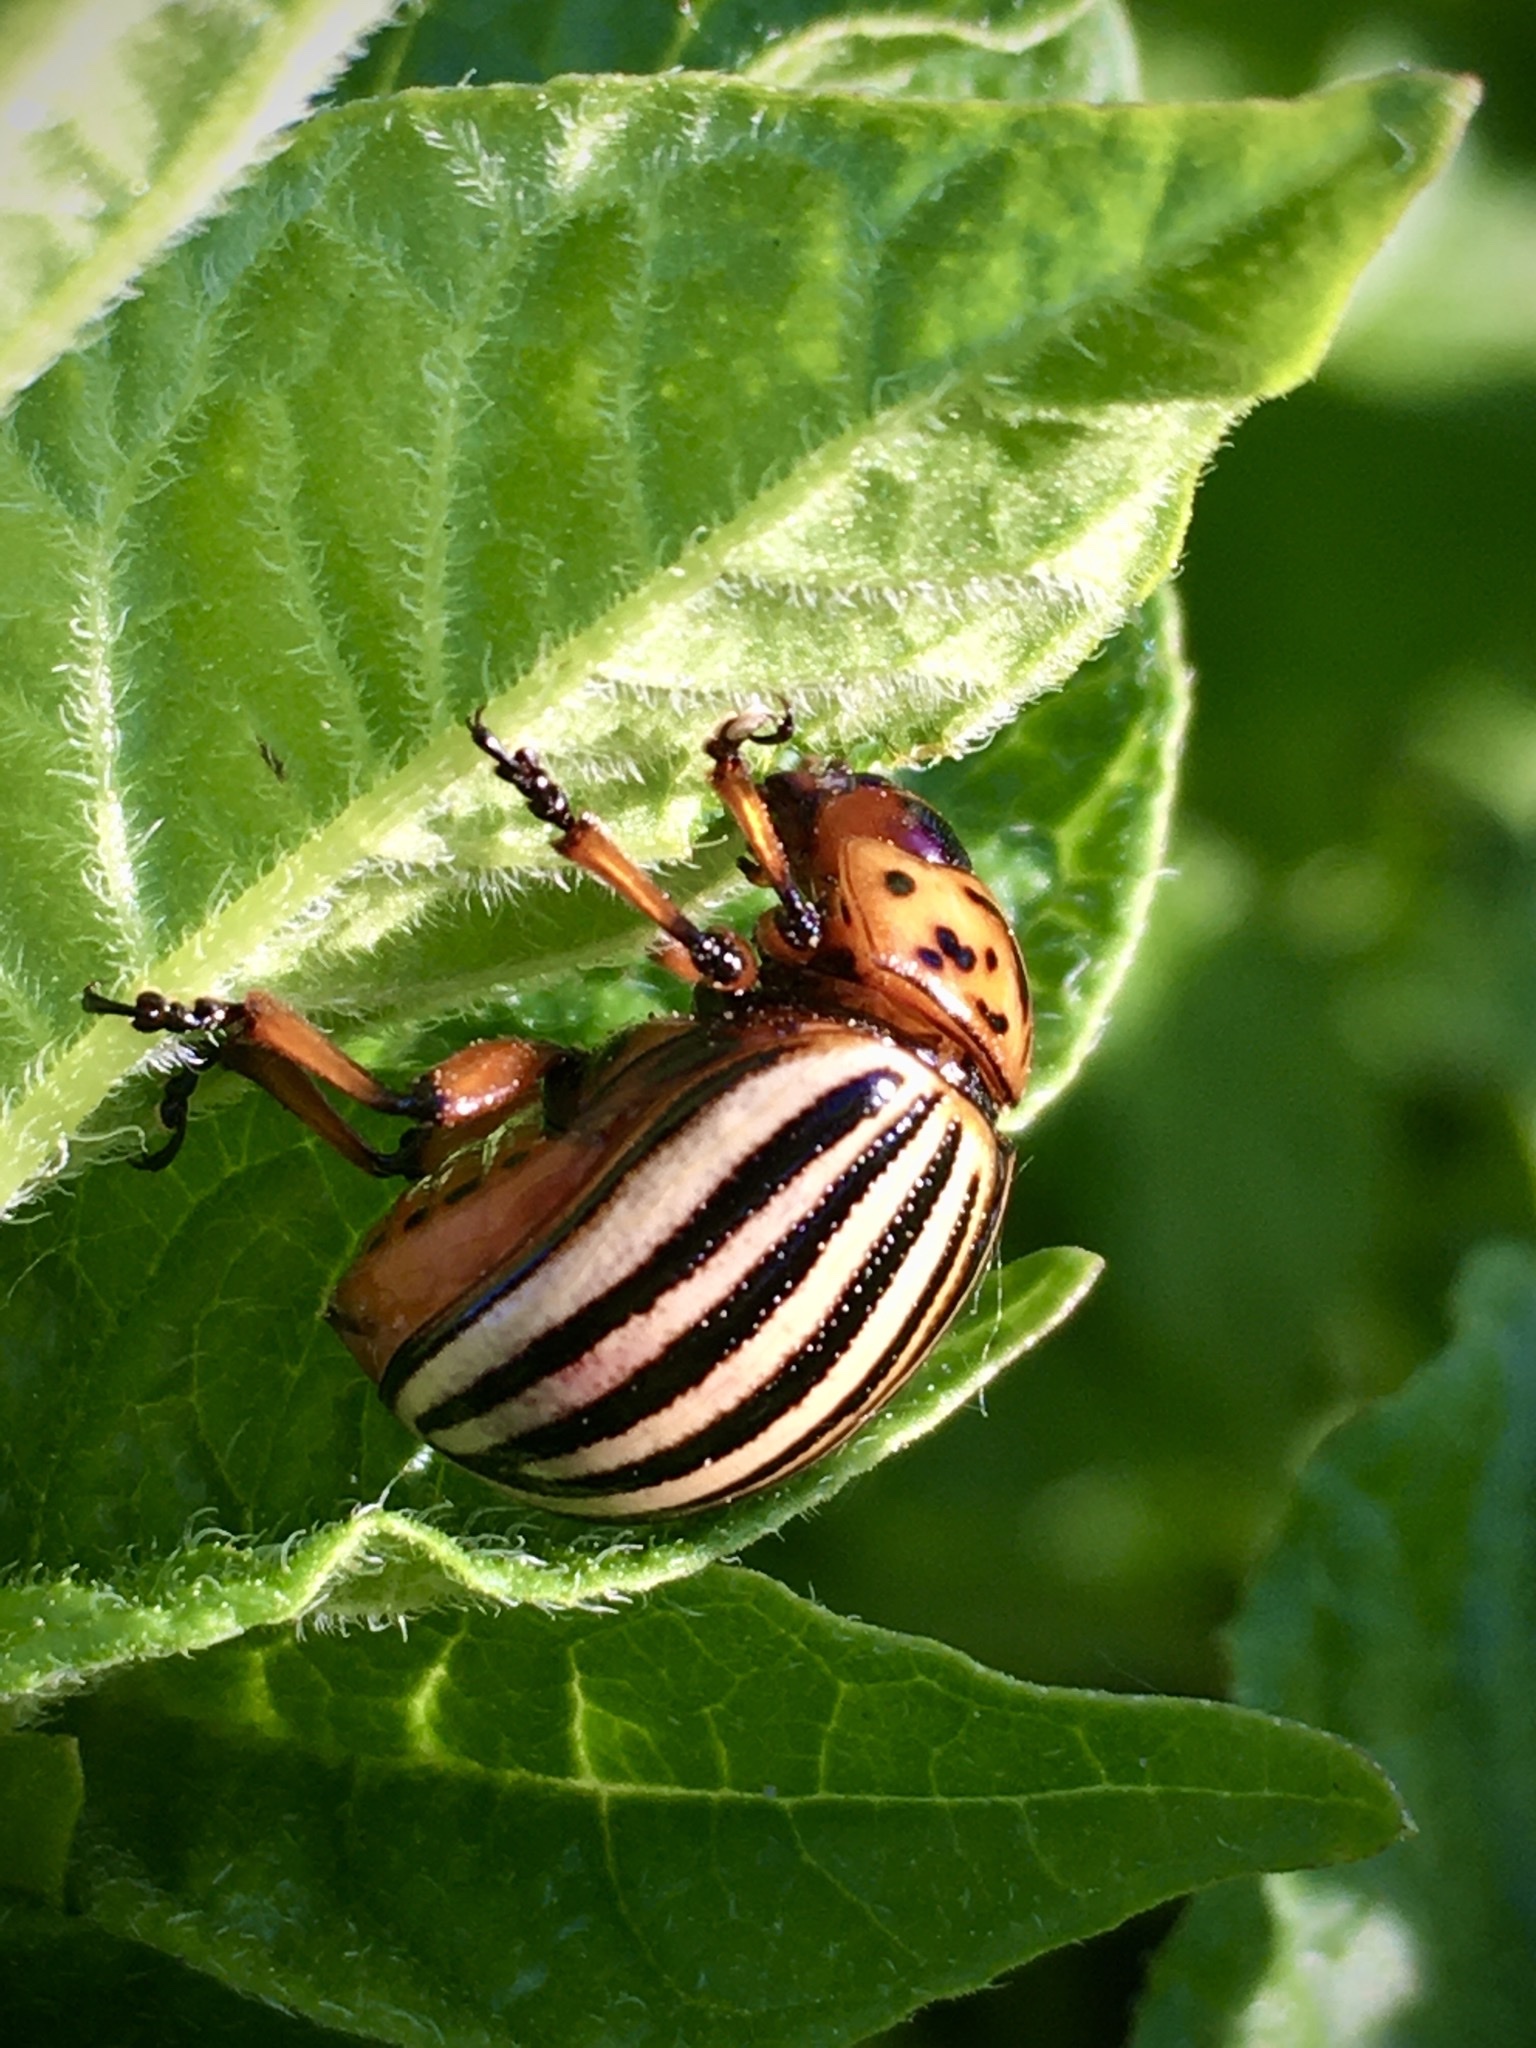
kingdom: Animalia
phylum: Arthropoda
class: Insecta
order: Coleoptera
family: Chrysomelidae
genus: Leptinotarsa
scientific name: Leptinotarsa decemlineata
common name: Colorado potato beetle
